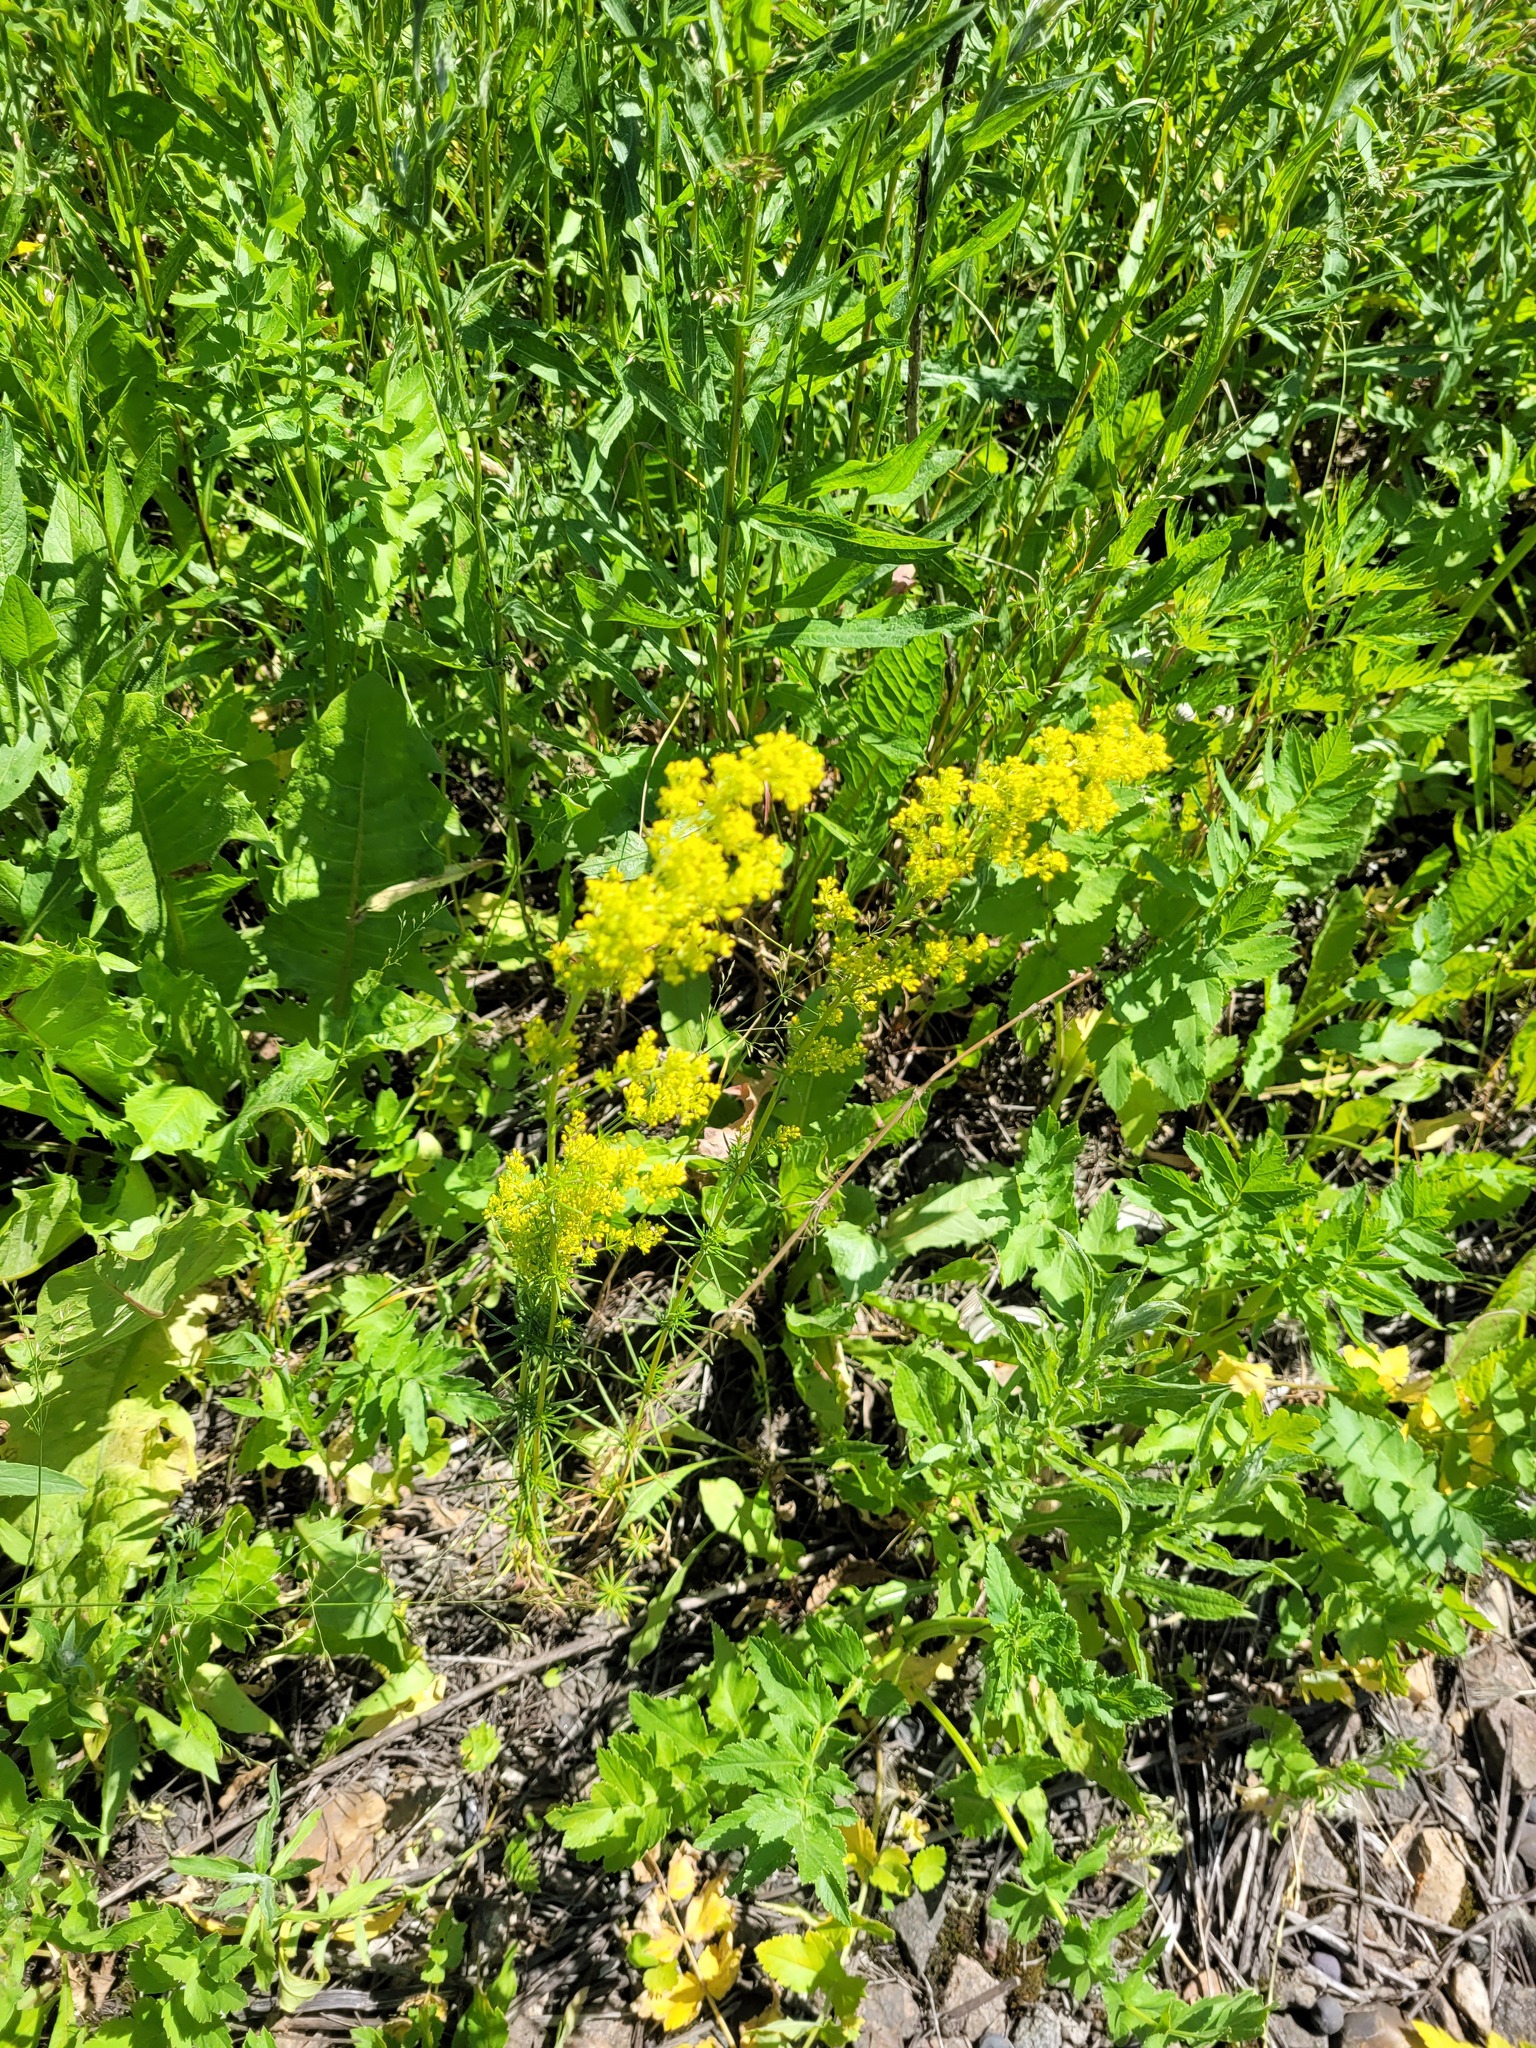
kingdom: Plantae
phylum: Tracheophyta
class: Magnoliopsida
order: Gentianales
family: Rubiaceae
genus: Galium
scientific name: Galium verum
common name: Lady's bedstraw
